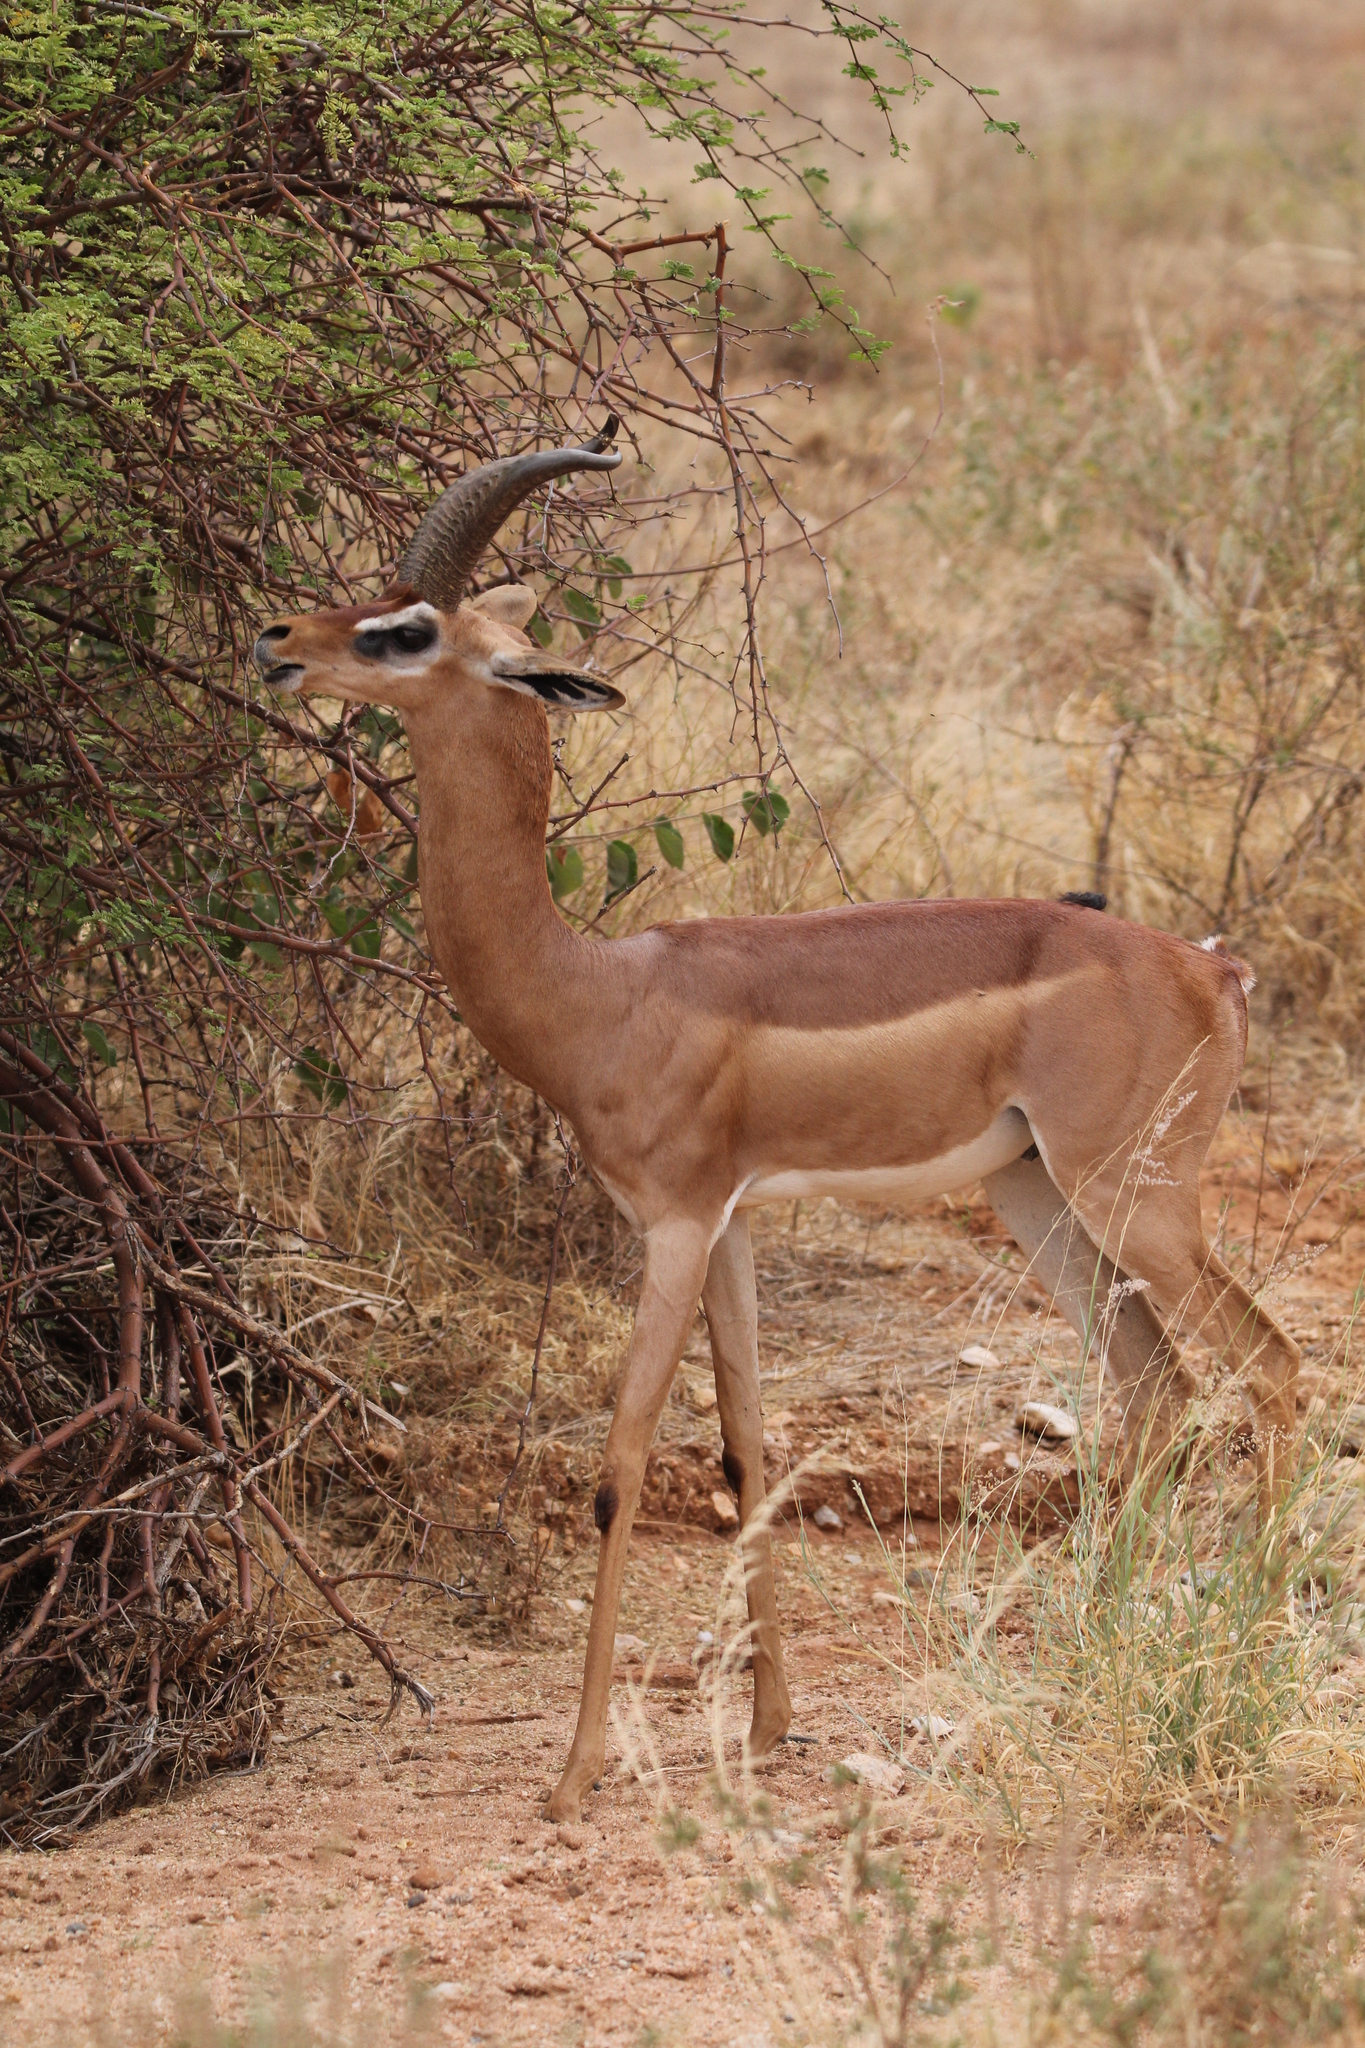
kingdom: Animalia
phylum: Chordata
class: Mammalia
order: Artiodactyla
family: Bovidae
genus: Litocranius
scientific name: Litocranius walleri
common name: Gerenuk
